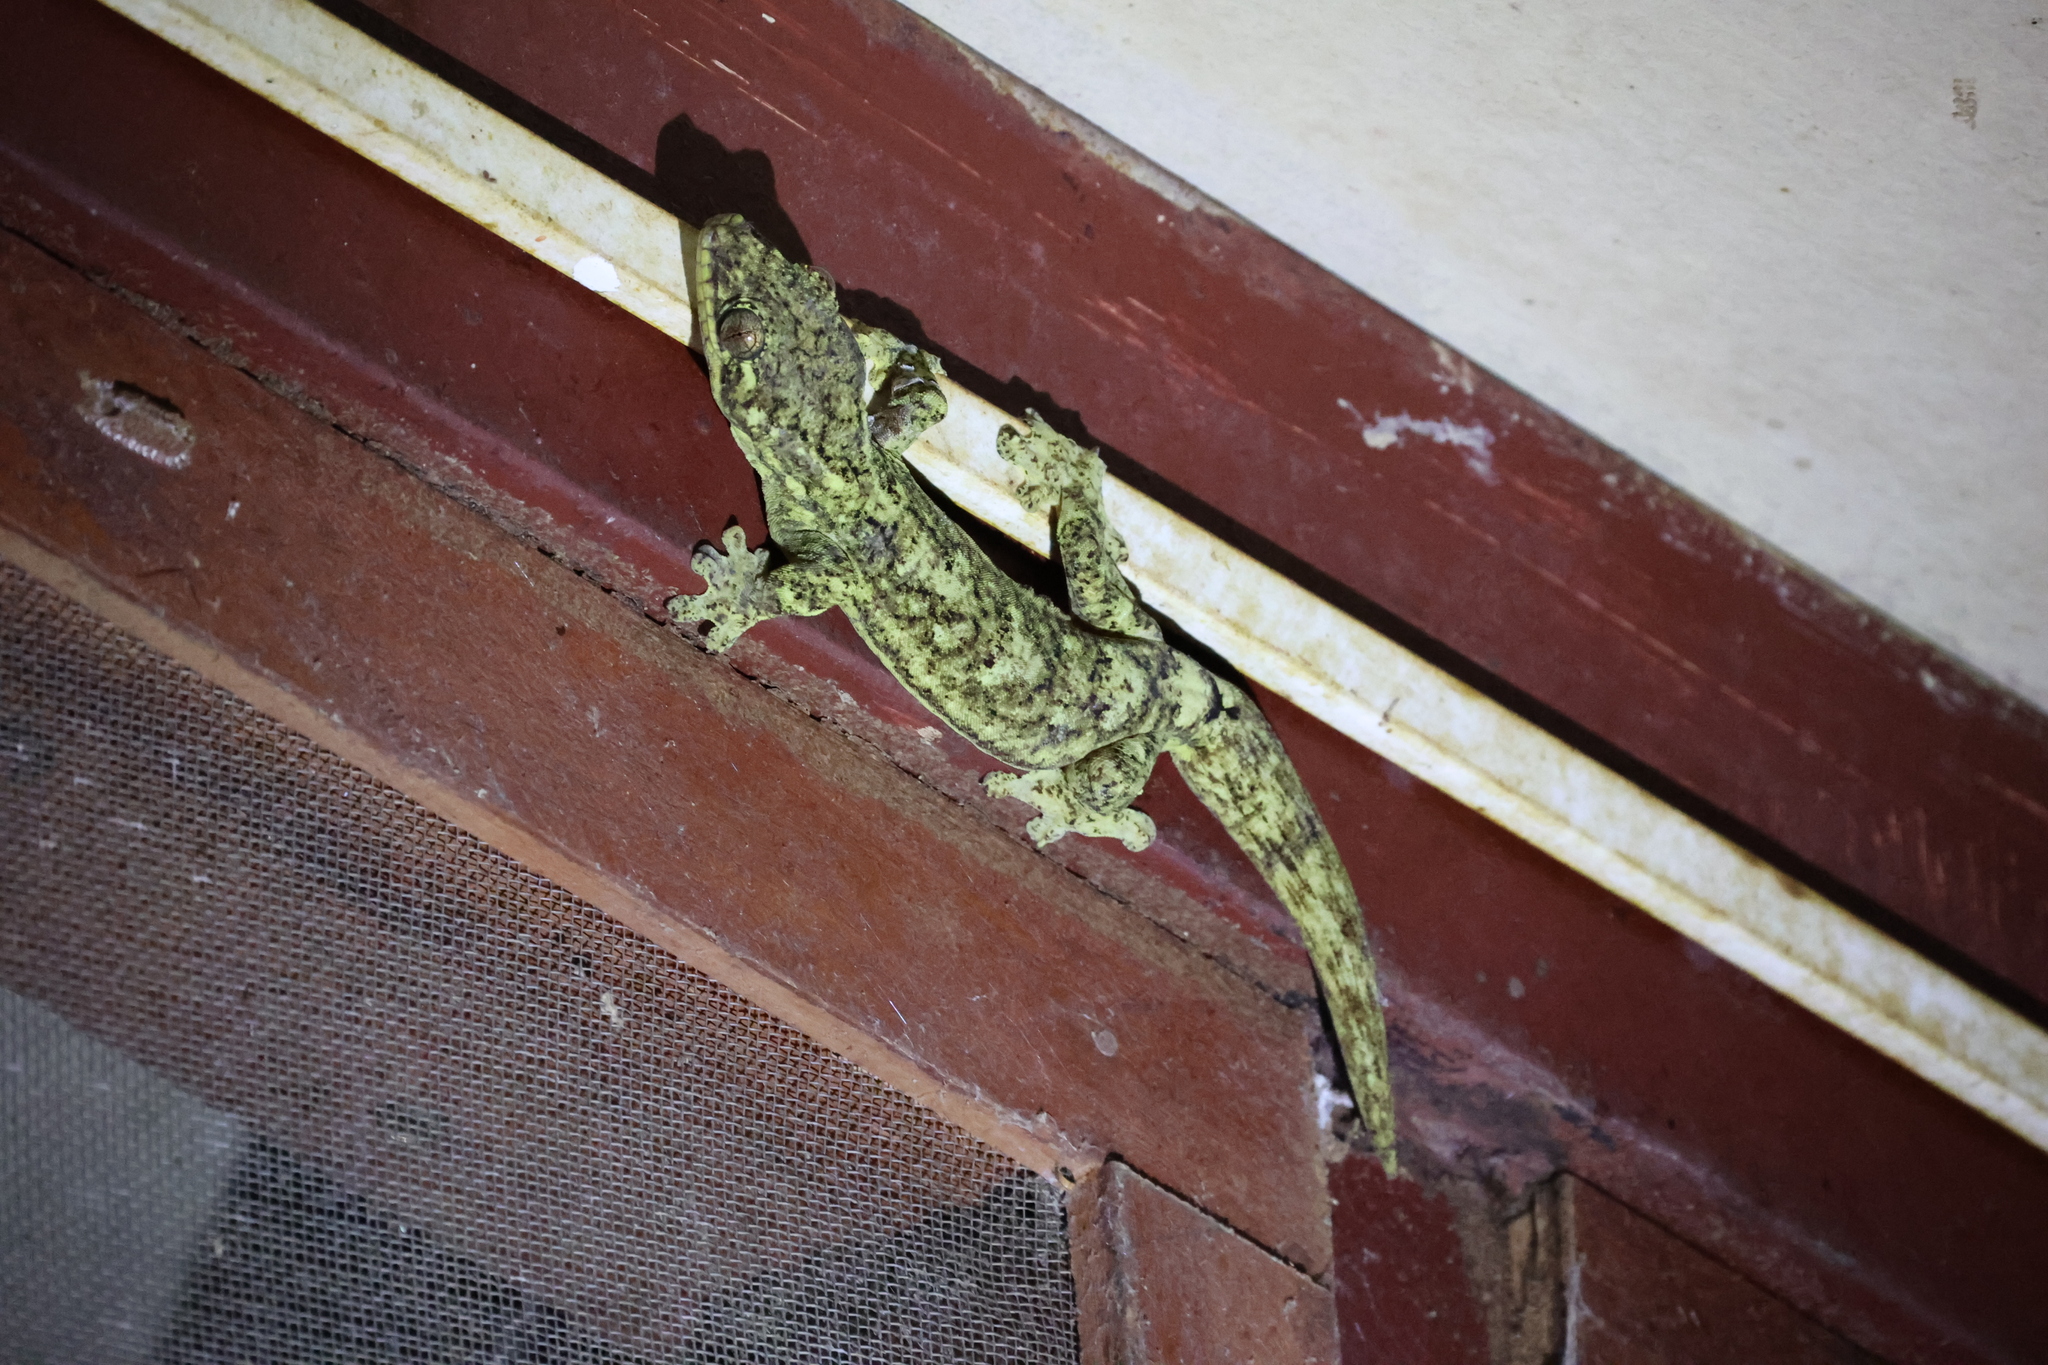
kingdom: Animalia
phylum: Chordata
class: Squamata
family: Phyllodactylidae
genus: Thecadactylus
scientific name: Thecadactylus solimoensis
